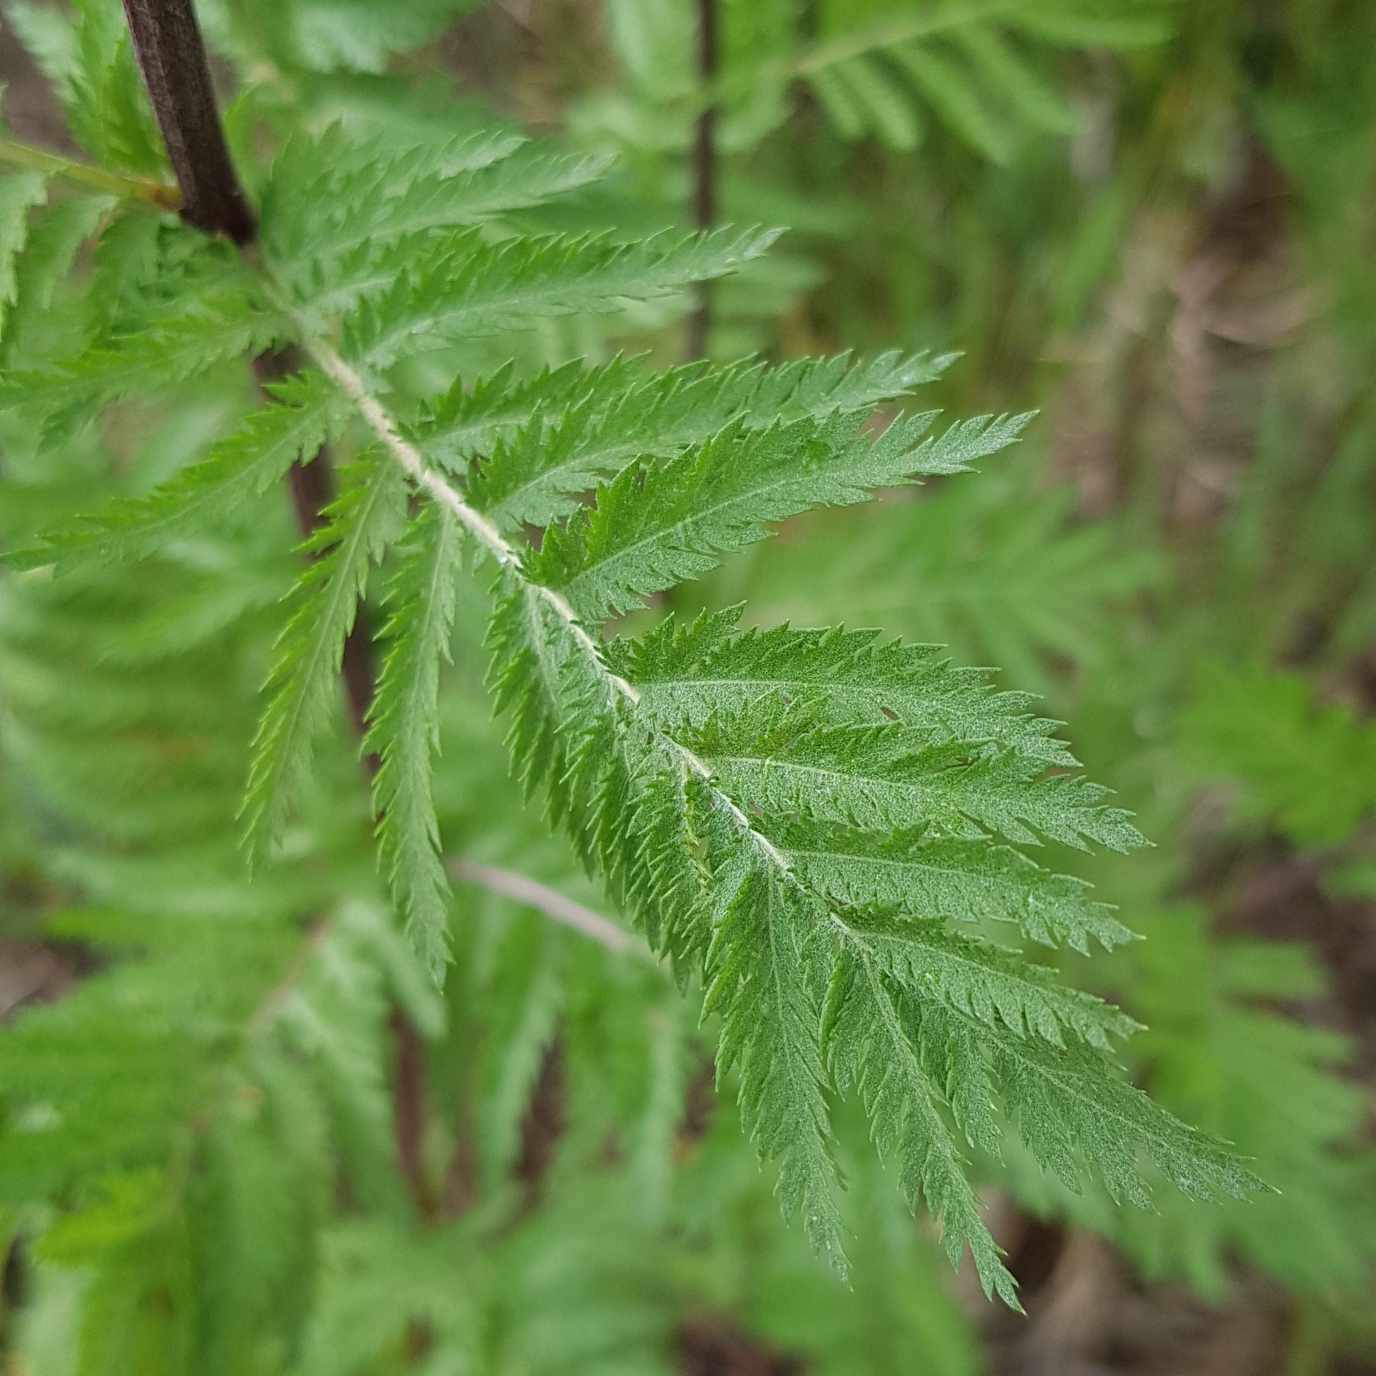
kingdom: Plantae
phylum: Tracheophyta
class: Magnoliopsida
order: Asterales
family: Asteraceae
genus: Tanacetum
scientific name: Tanacetum vulgare
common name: Common tansy
